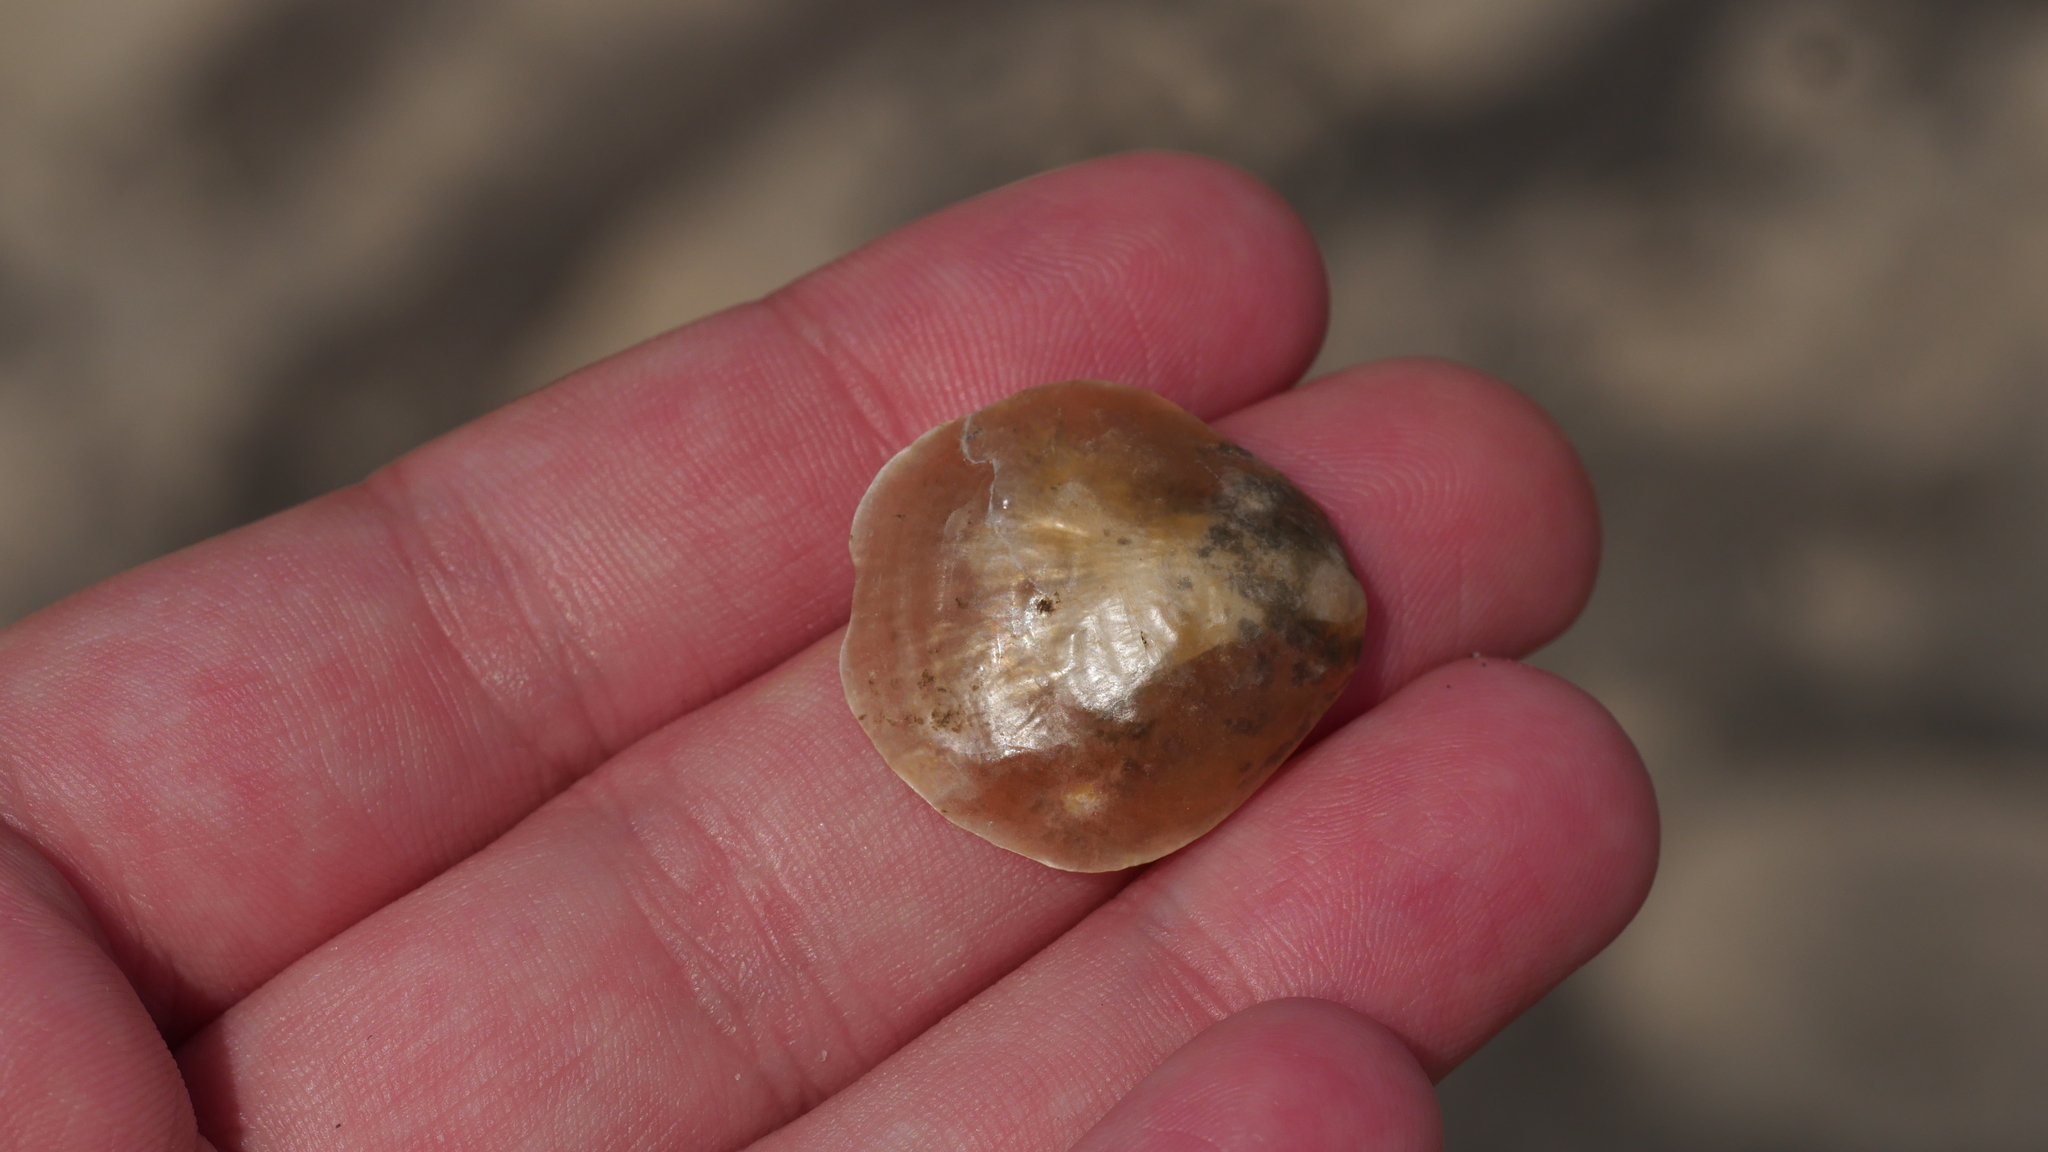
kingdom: Animalia
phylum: Mollusca
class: Bivalvia
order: Pectinida
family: Anomiidae
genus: Anomia
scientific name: Anomia simplex
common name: Common jingle shell
